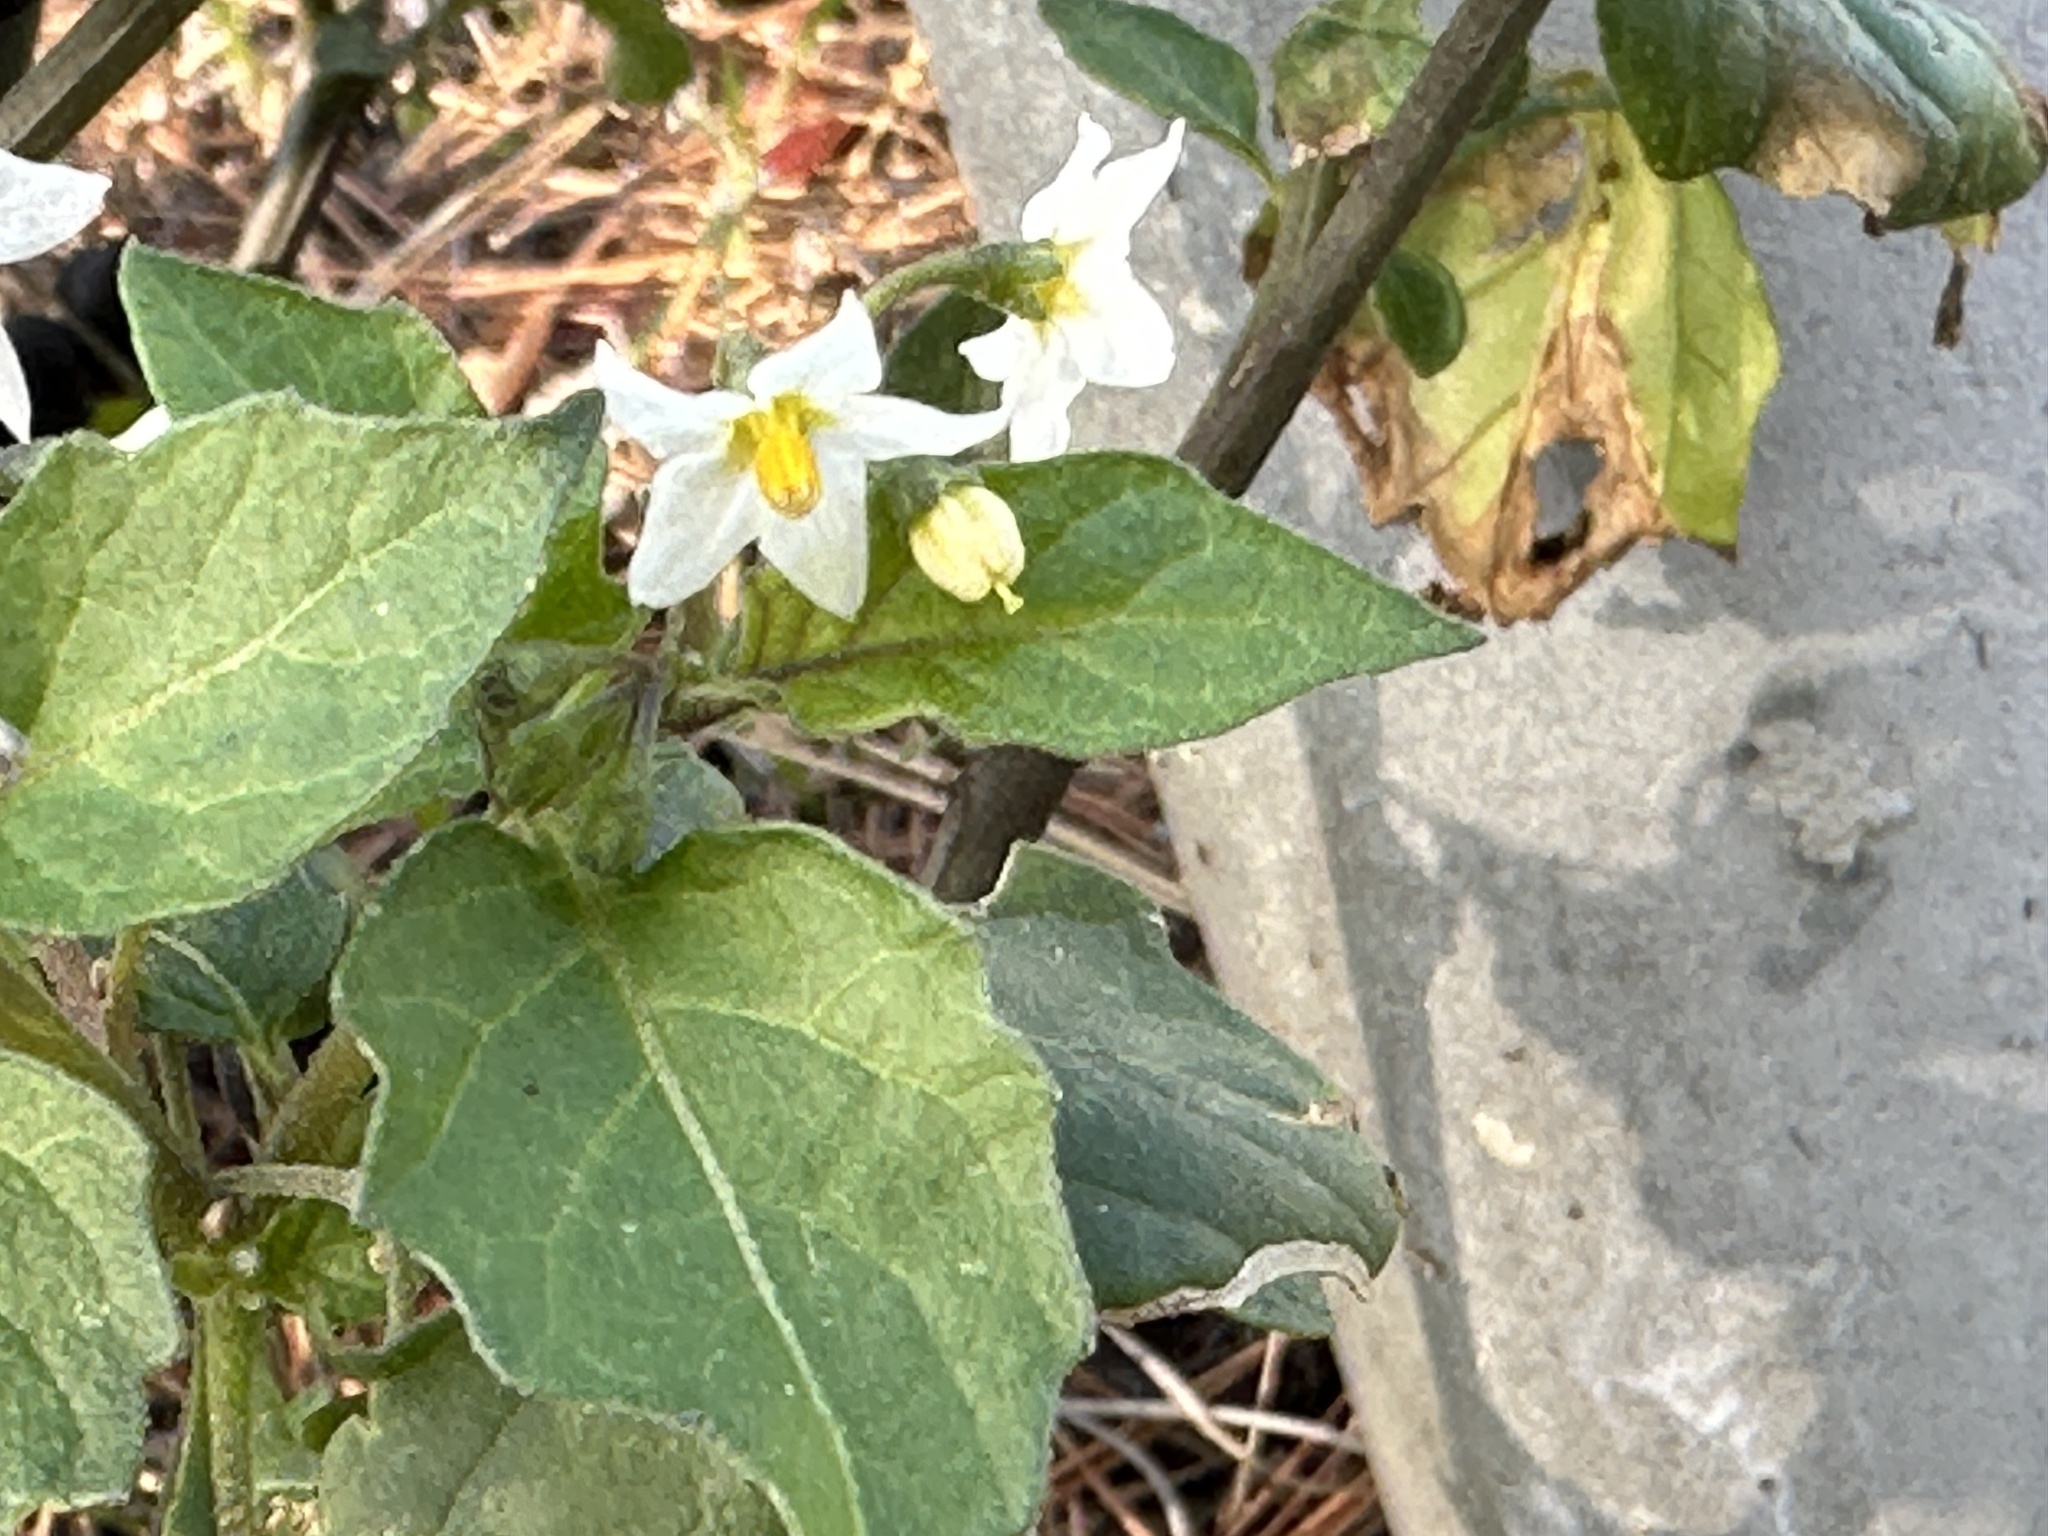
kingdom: Plantae
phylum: Tracheophyta
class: Magnoliopsida
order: Solanales
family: Solanaceae
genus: Solanum
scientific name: Solanum nigrum
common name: Black nightshade
